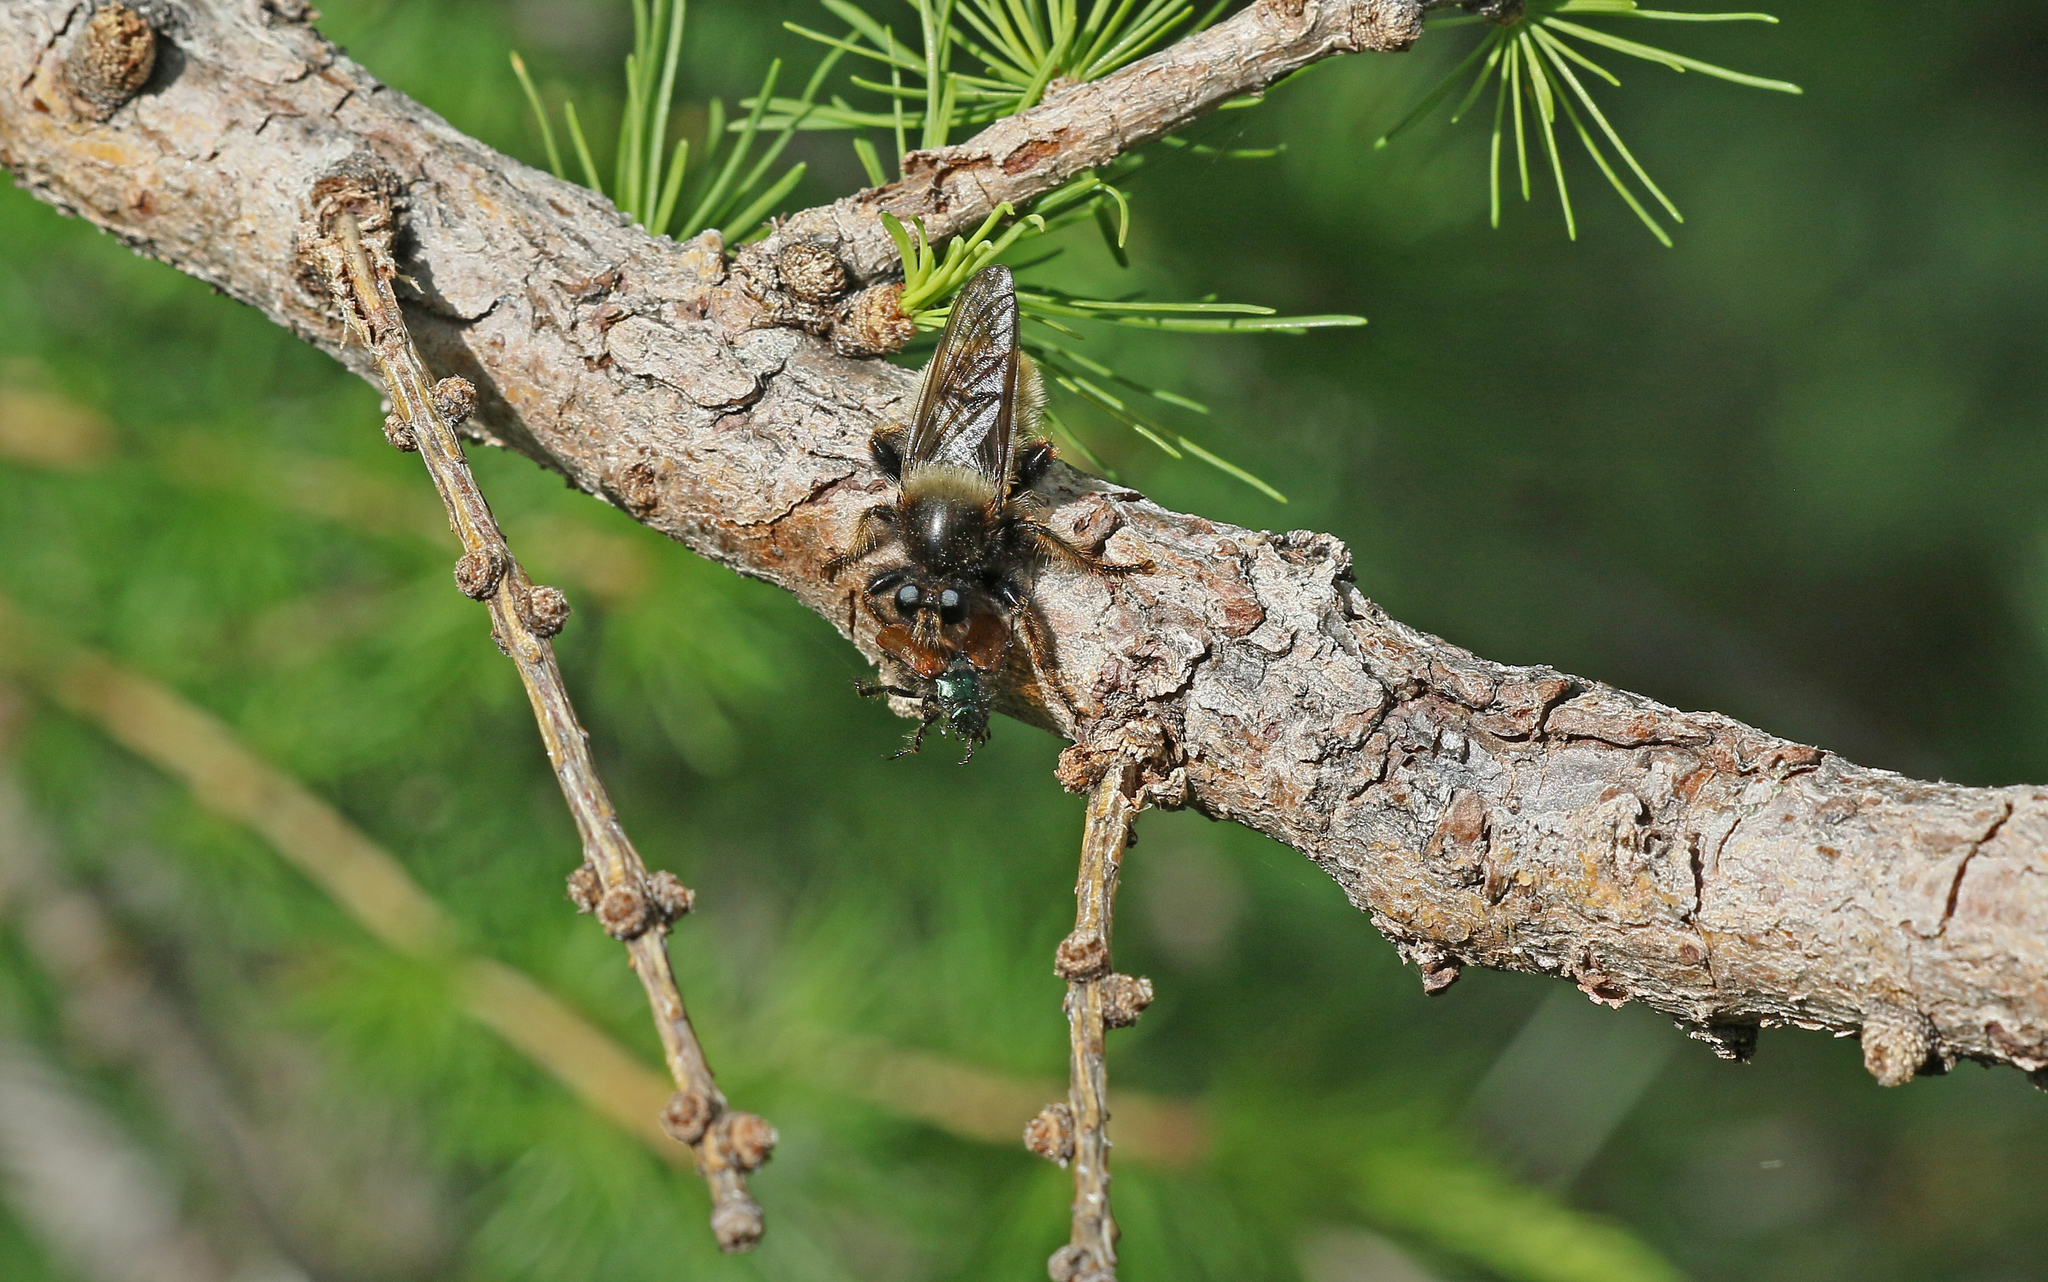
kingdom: Animalia
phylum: Arthropoda
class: Insecta
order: Diptera
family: Asilidae
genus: Laphria
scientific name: Laphria flava
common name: Bumblebee robberfly
